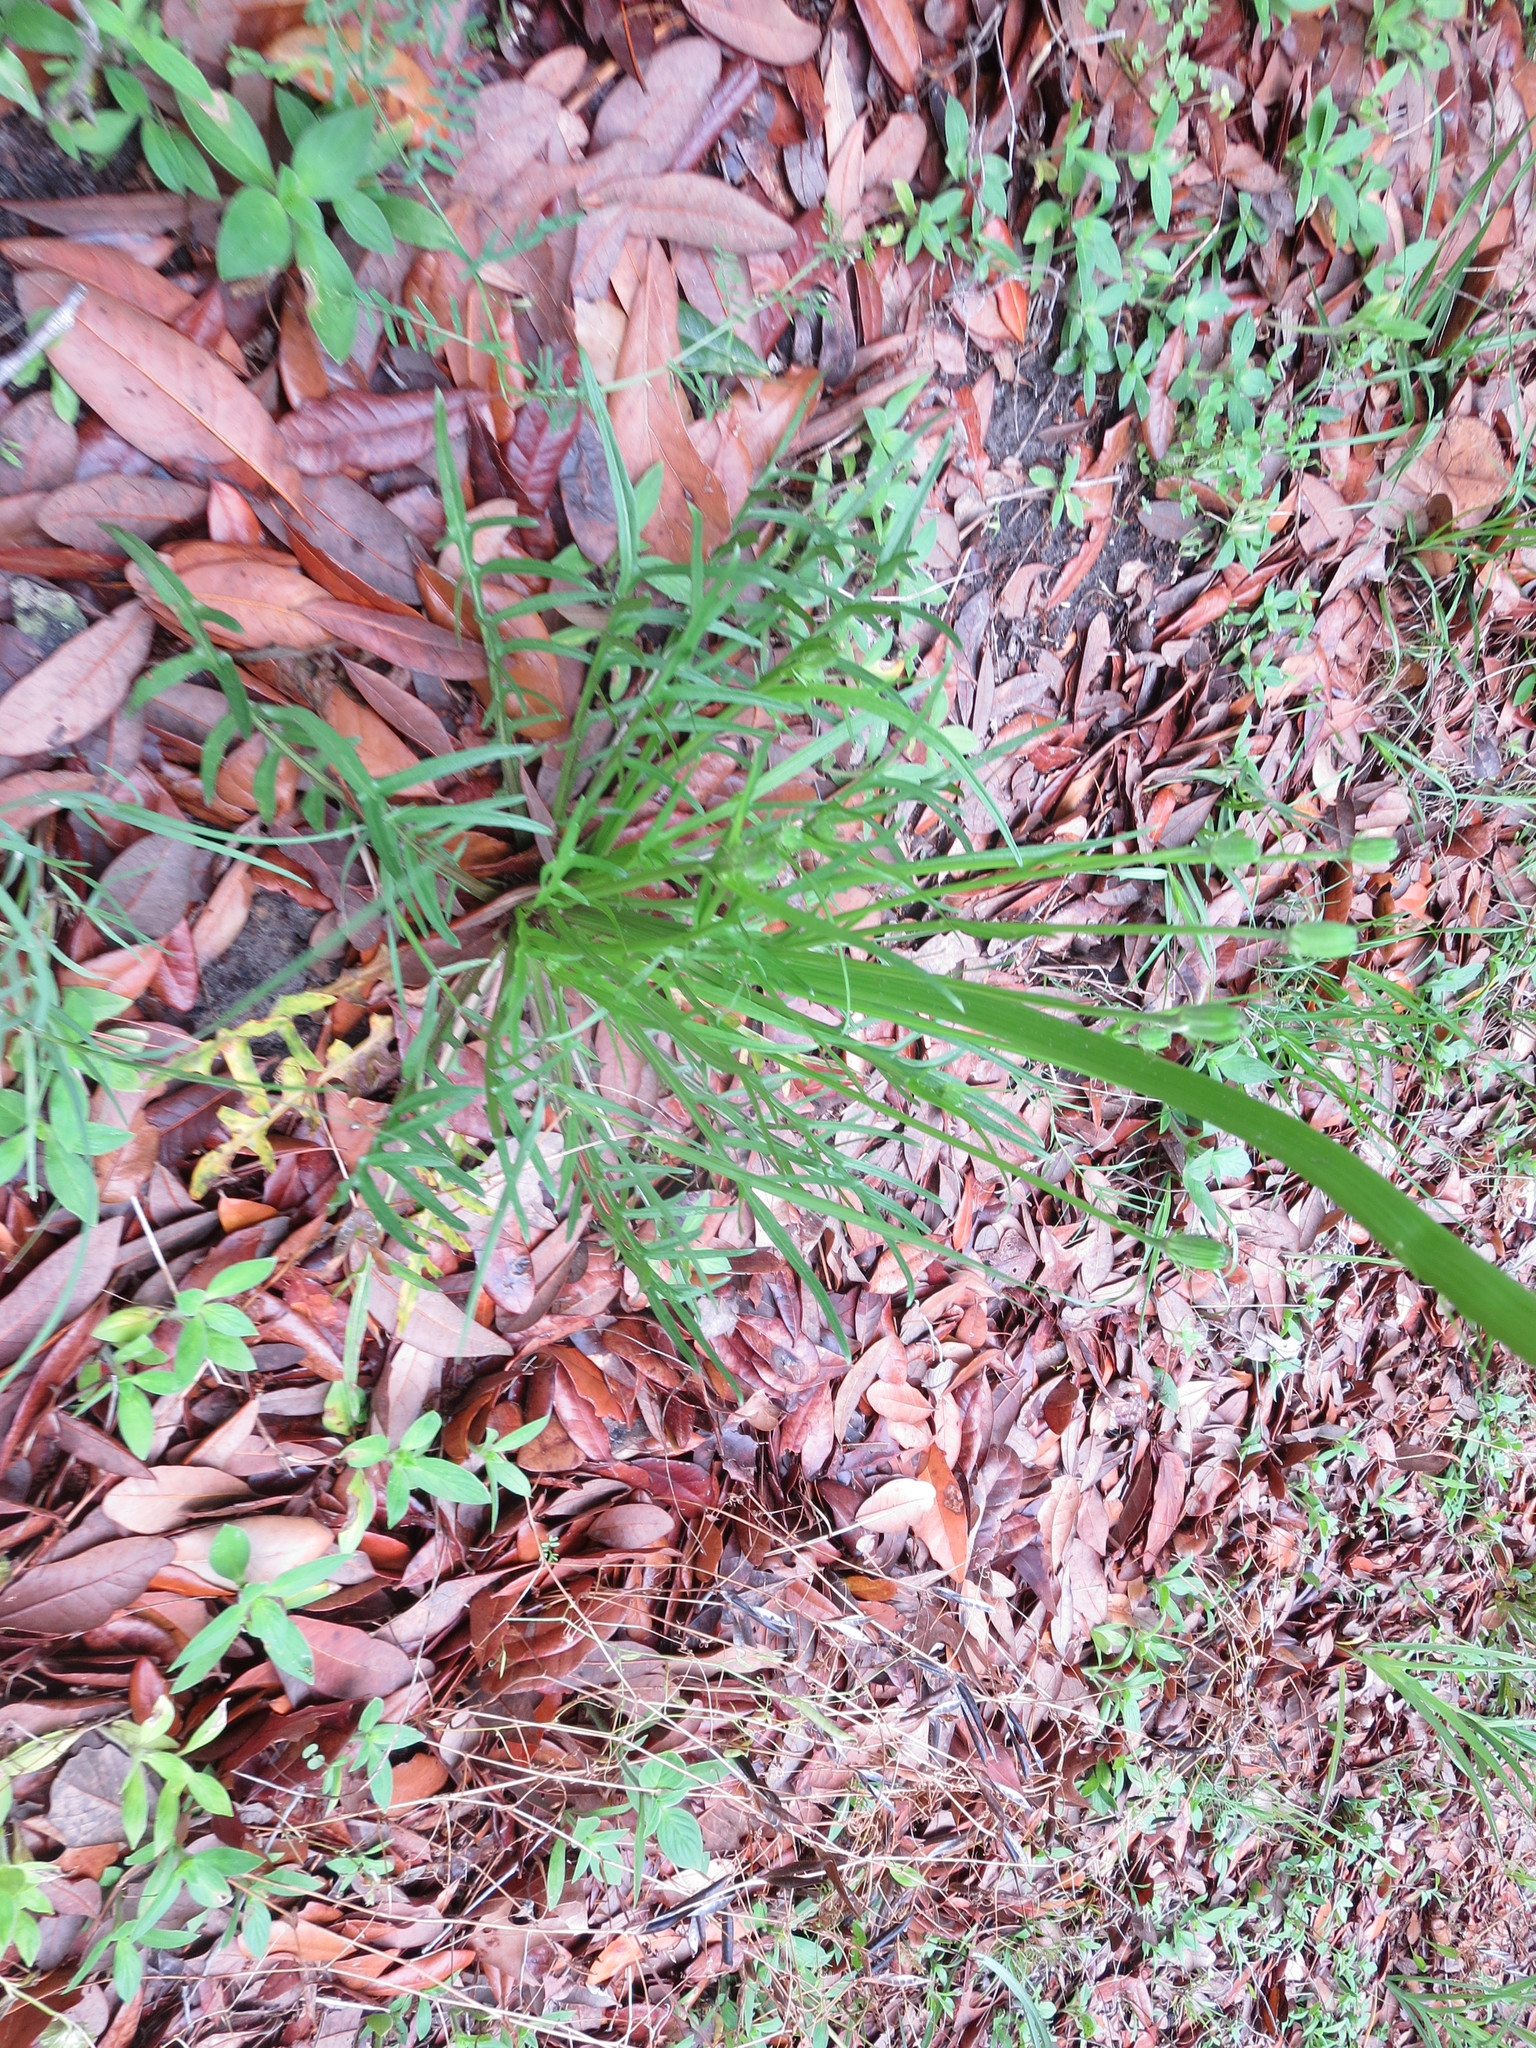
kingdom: Plantae
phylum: Tracheophyta
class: Magnoliopsida
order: Asterales
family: Asteraceae
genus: Pyrrhopappus
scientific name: Pyrrhopappus carolinianus
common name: Carolina desert-chicory
